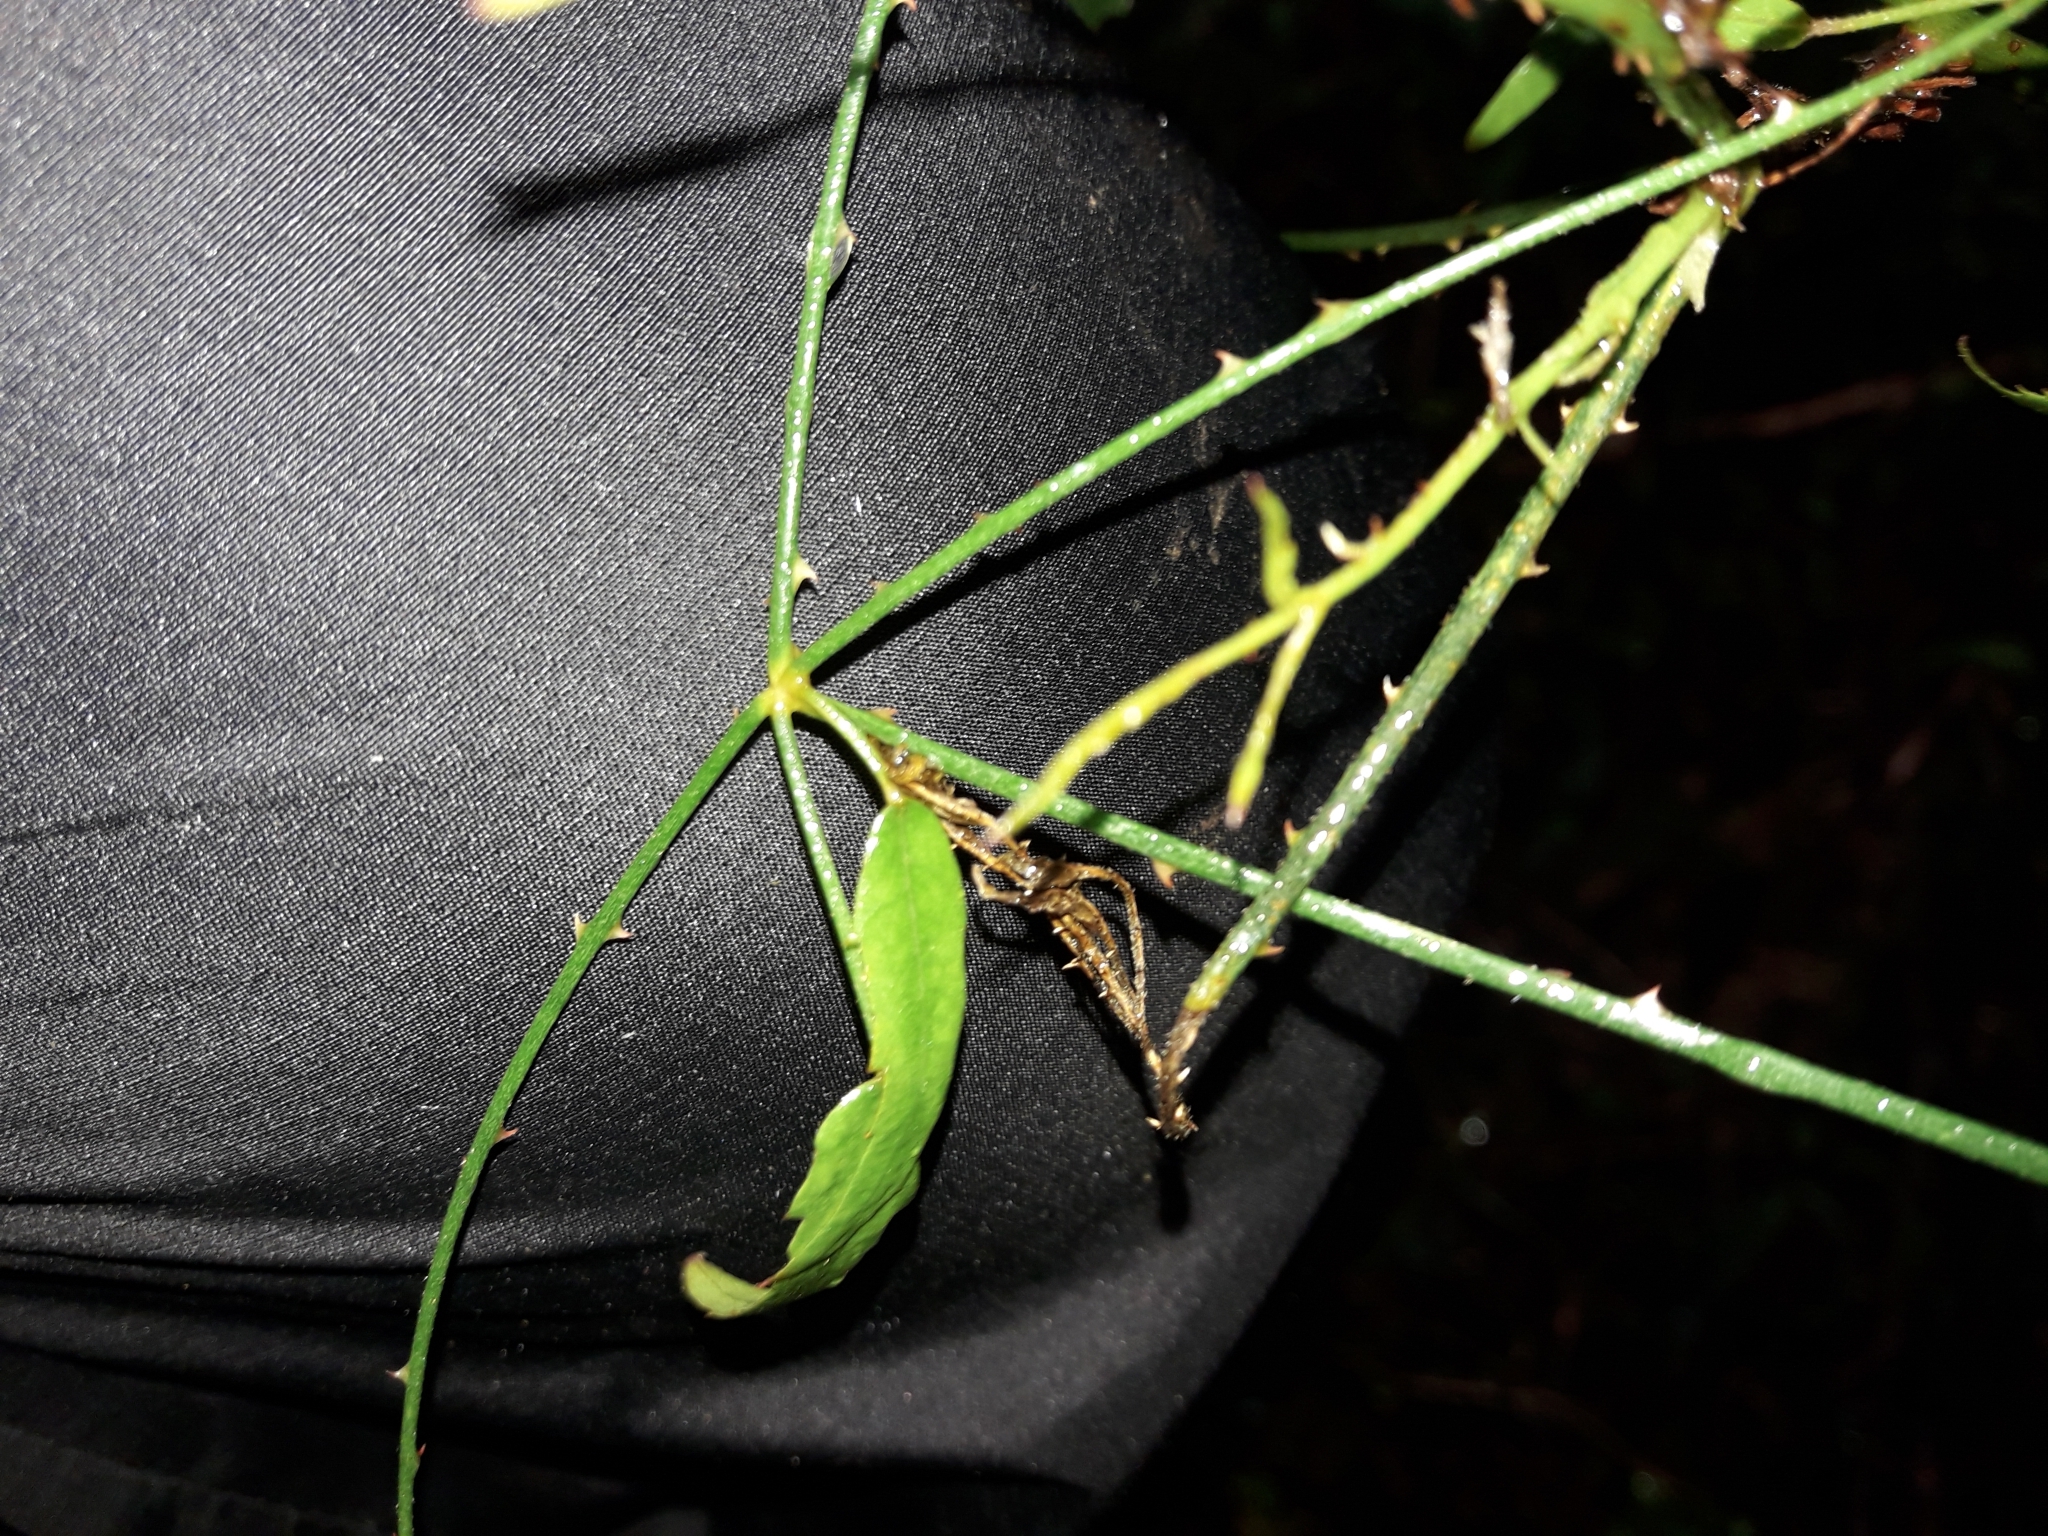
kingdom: Plantae
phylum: Tracheophyta
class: Magnoliopsida
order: Rosales
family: Rosaceae
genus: Rubus
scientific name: Rubus squarrosus
